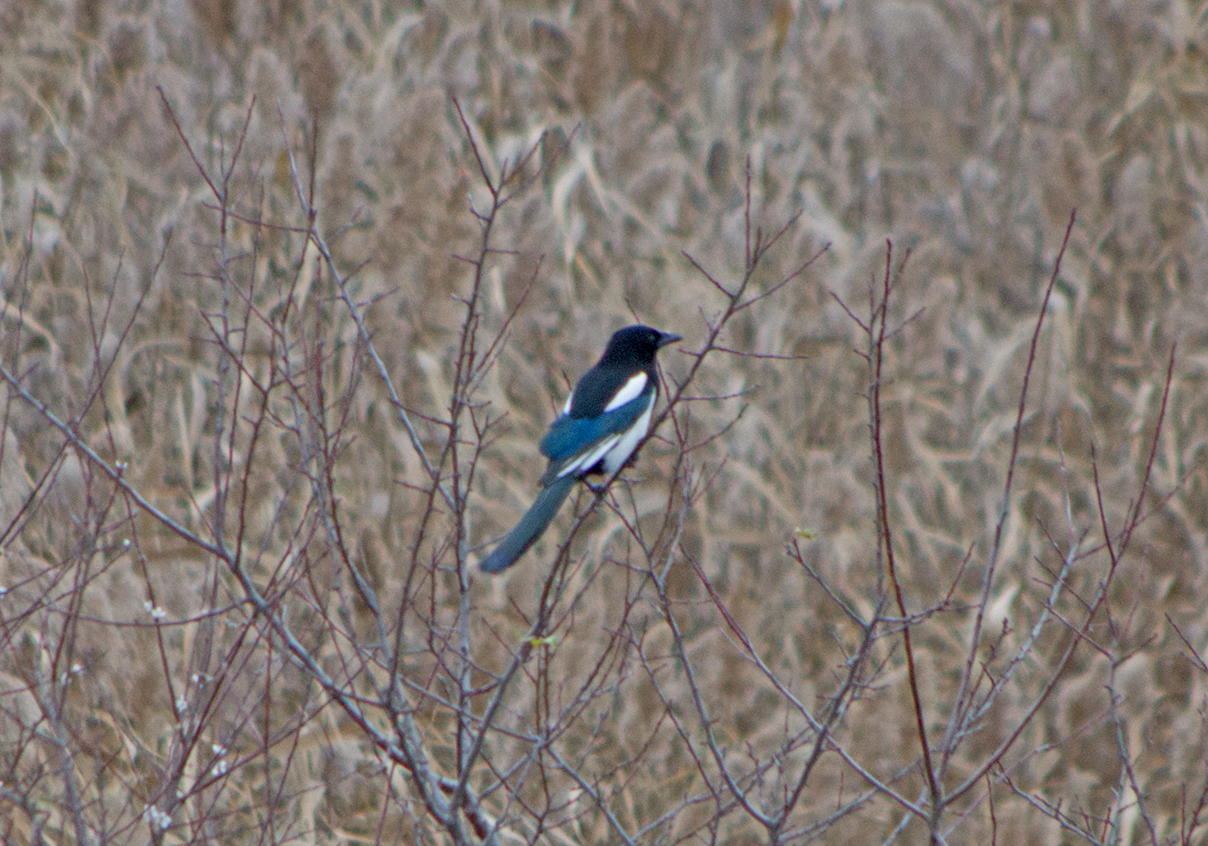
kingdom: Animalia
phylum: Chordata
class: Aves
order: Passeriformes
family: Corvidae
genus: Pica
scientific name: Pica pica
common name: Eurasian magpie
